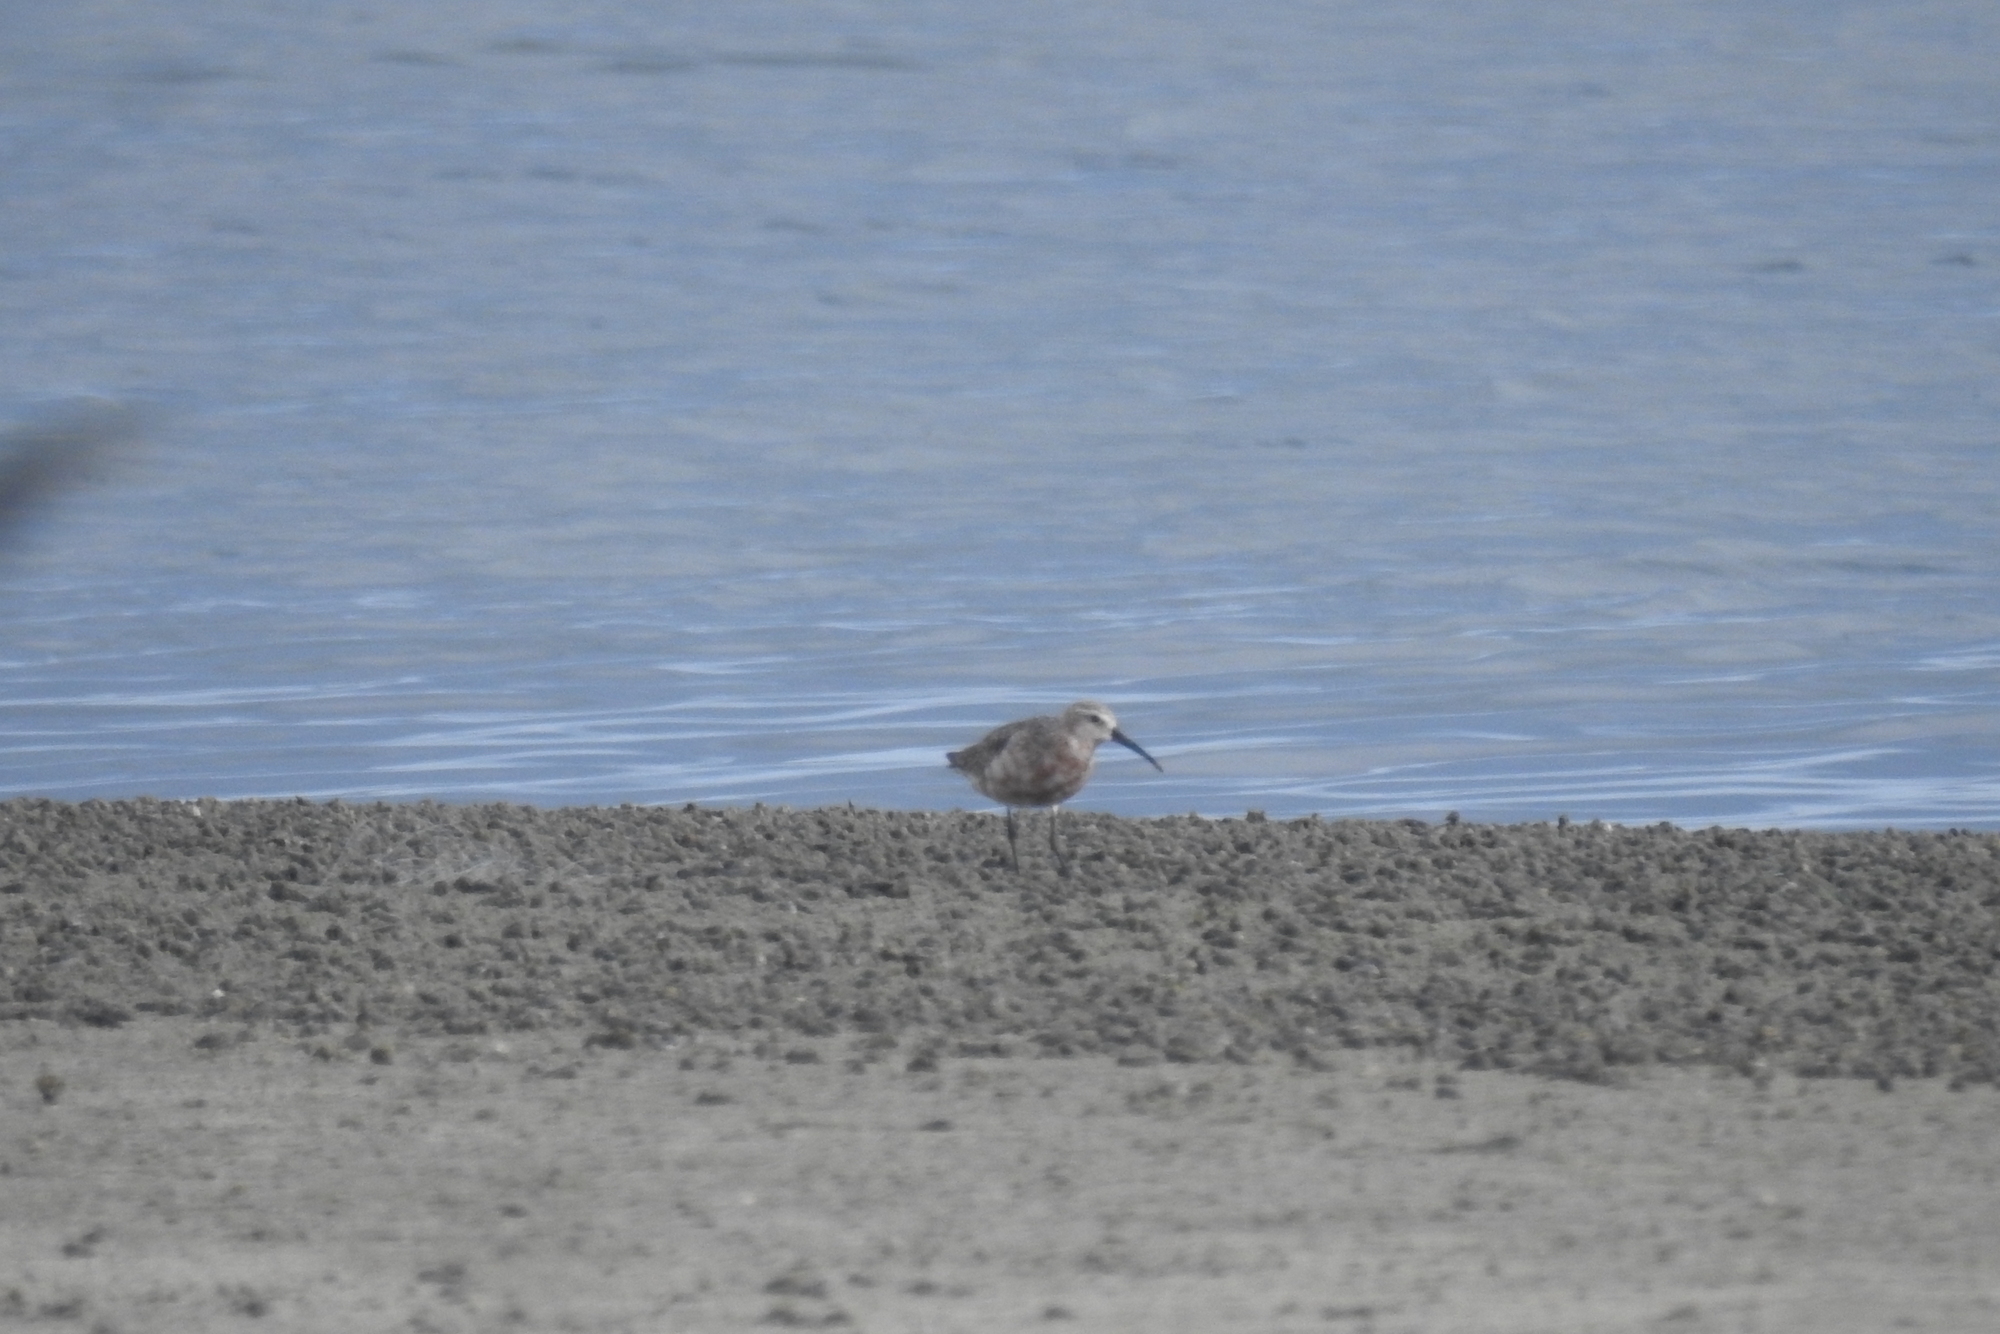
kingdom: Animalia
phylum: Chordata
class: Aves
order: Charadriiformes
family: Scolopacidae
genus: Calidris
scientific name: Calidris ferruginea
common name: Curlew sandpiper
